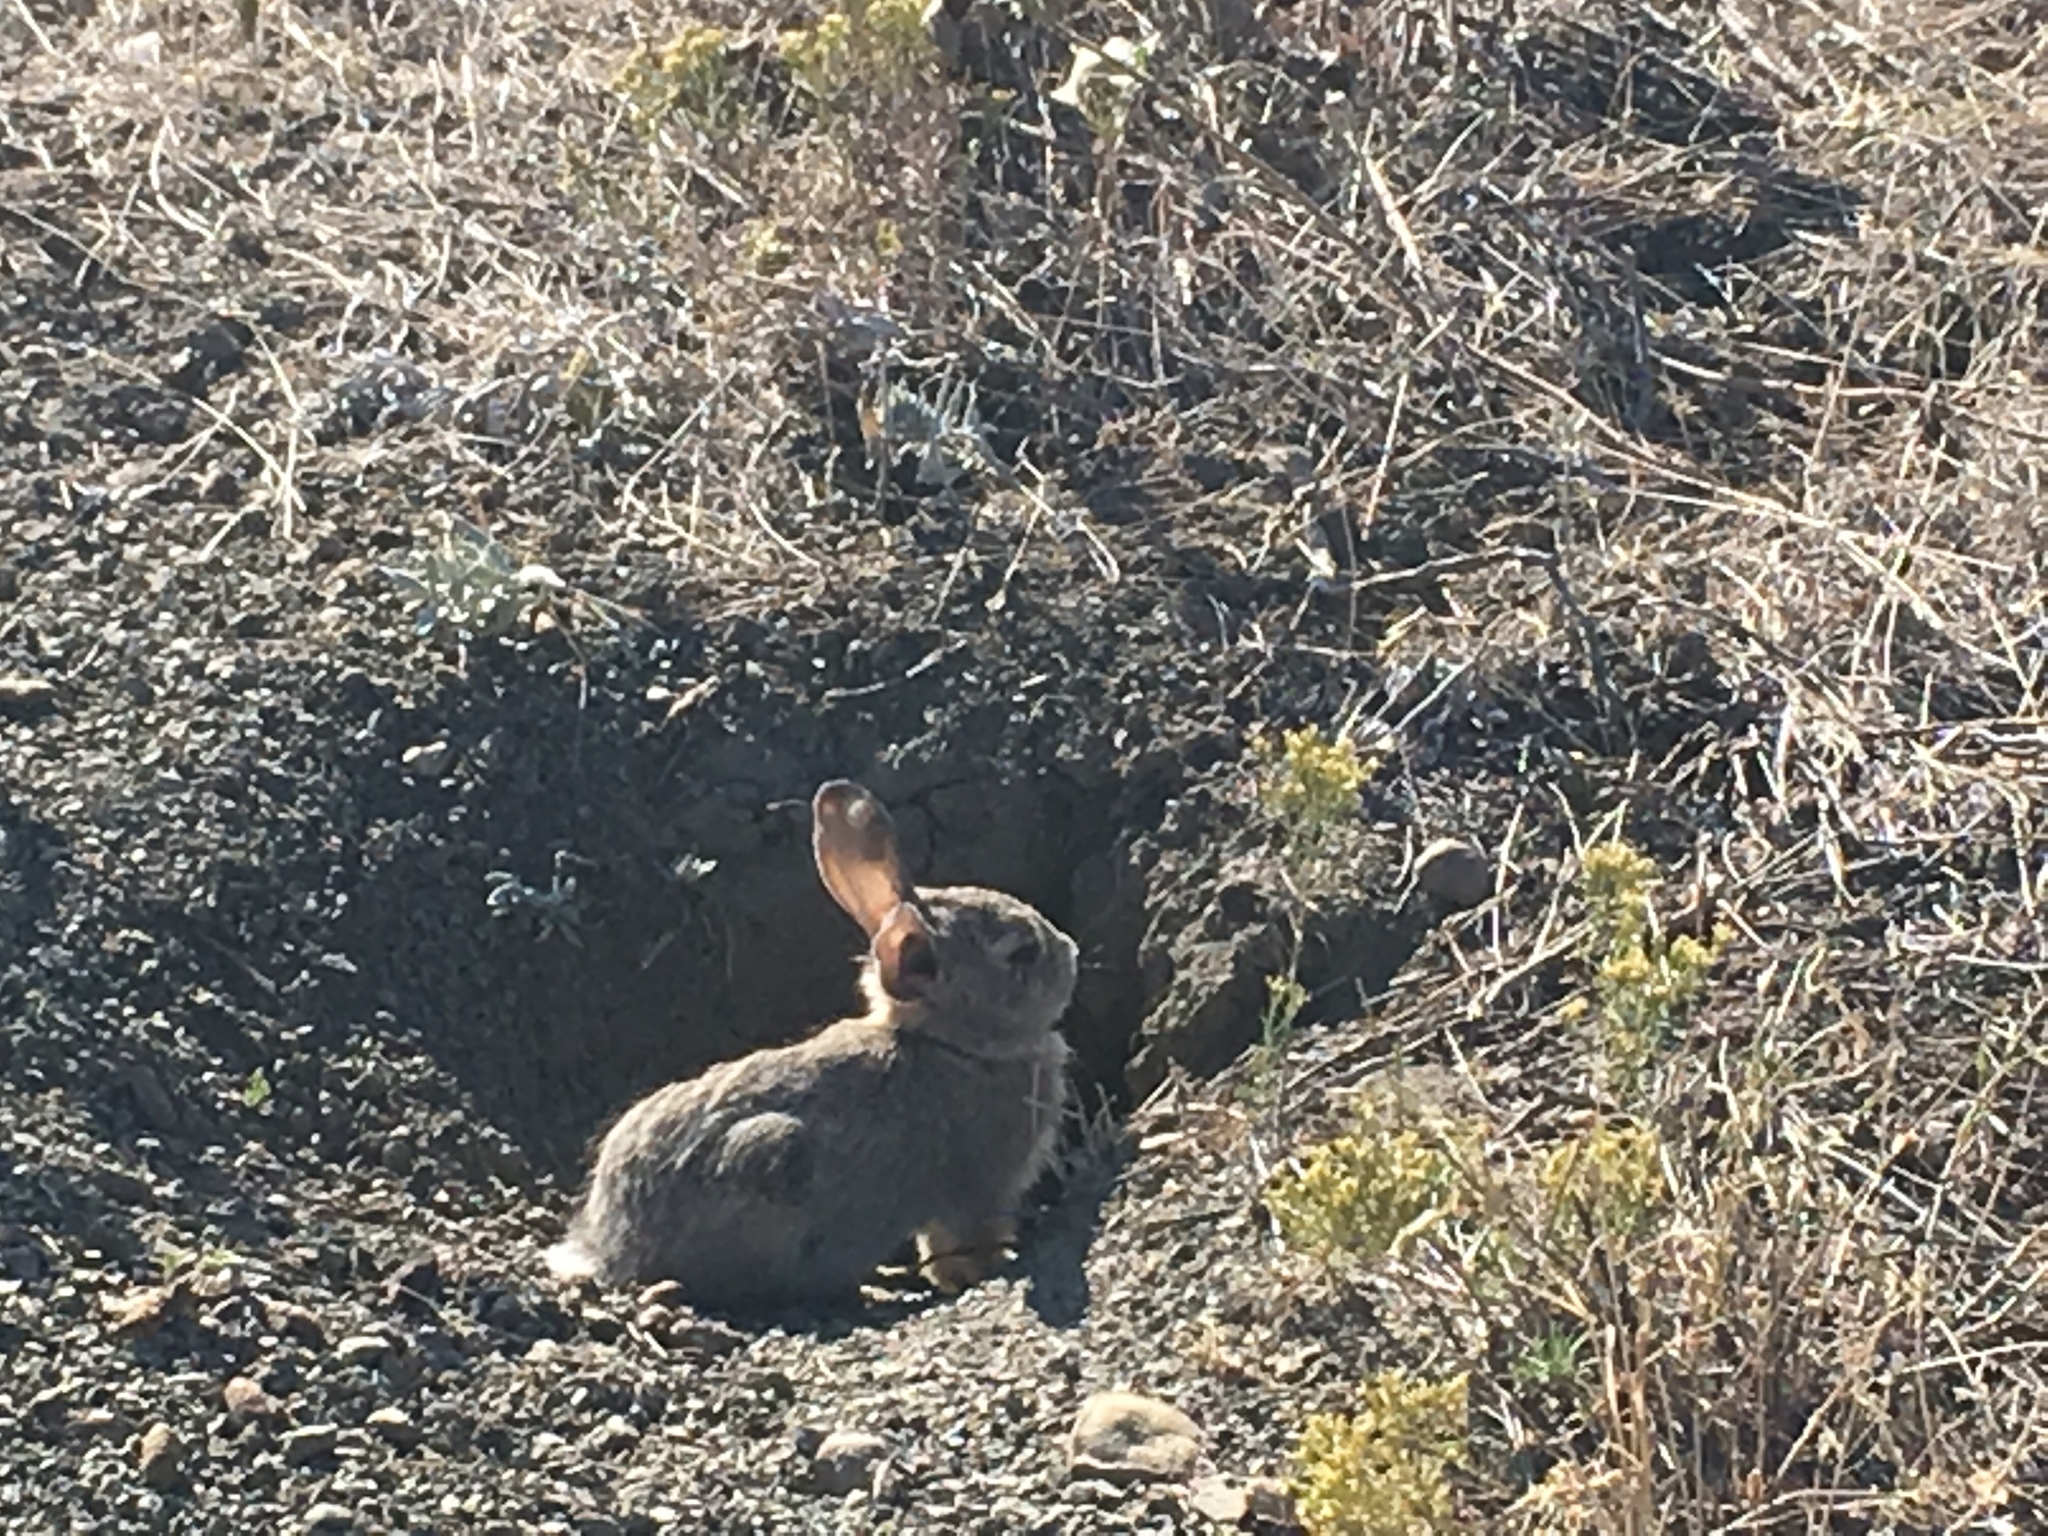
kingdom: Animalia
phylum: Chordata
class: Mammalia
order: Lagomorpha
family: Leporidae
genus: Sylvilagus
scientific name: Sylvilagus audubonii
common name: Desert cottontail
